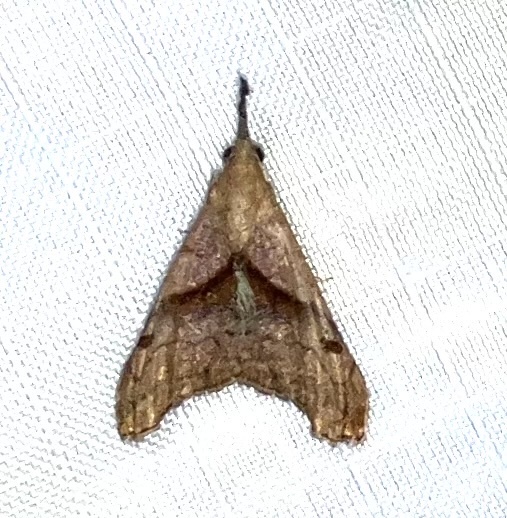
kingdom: Animalia
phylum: Arthropoda
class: Insecta
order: Lepidoptera
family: Erebidae
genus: Palthis
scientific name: Palthis angulalis
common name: Dark-spotted palthis moth
